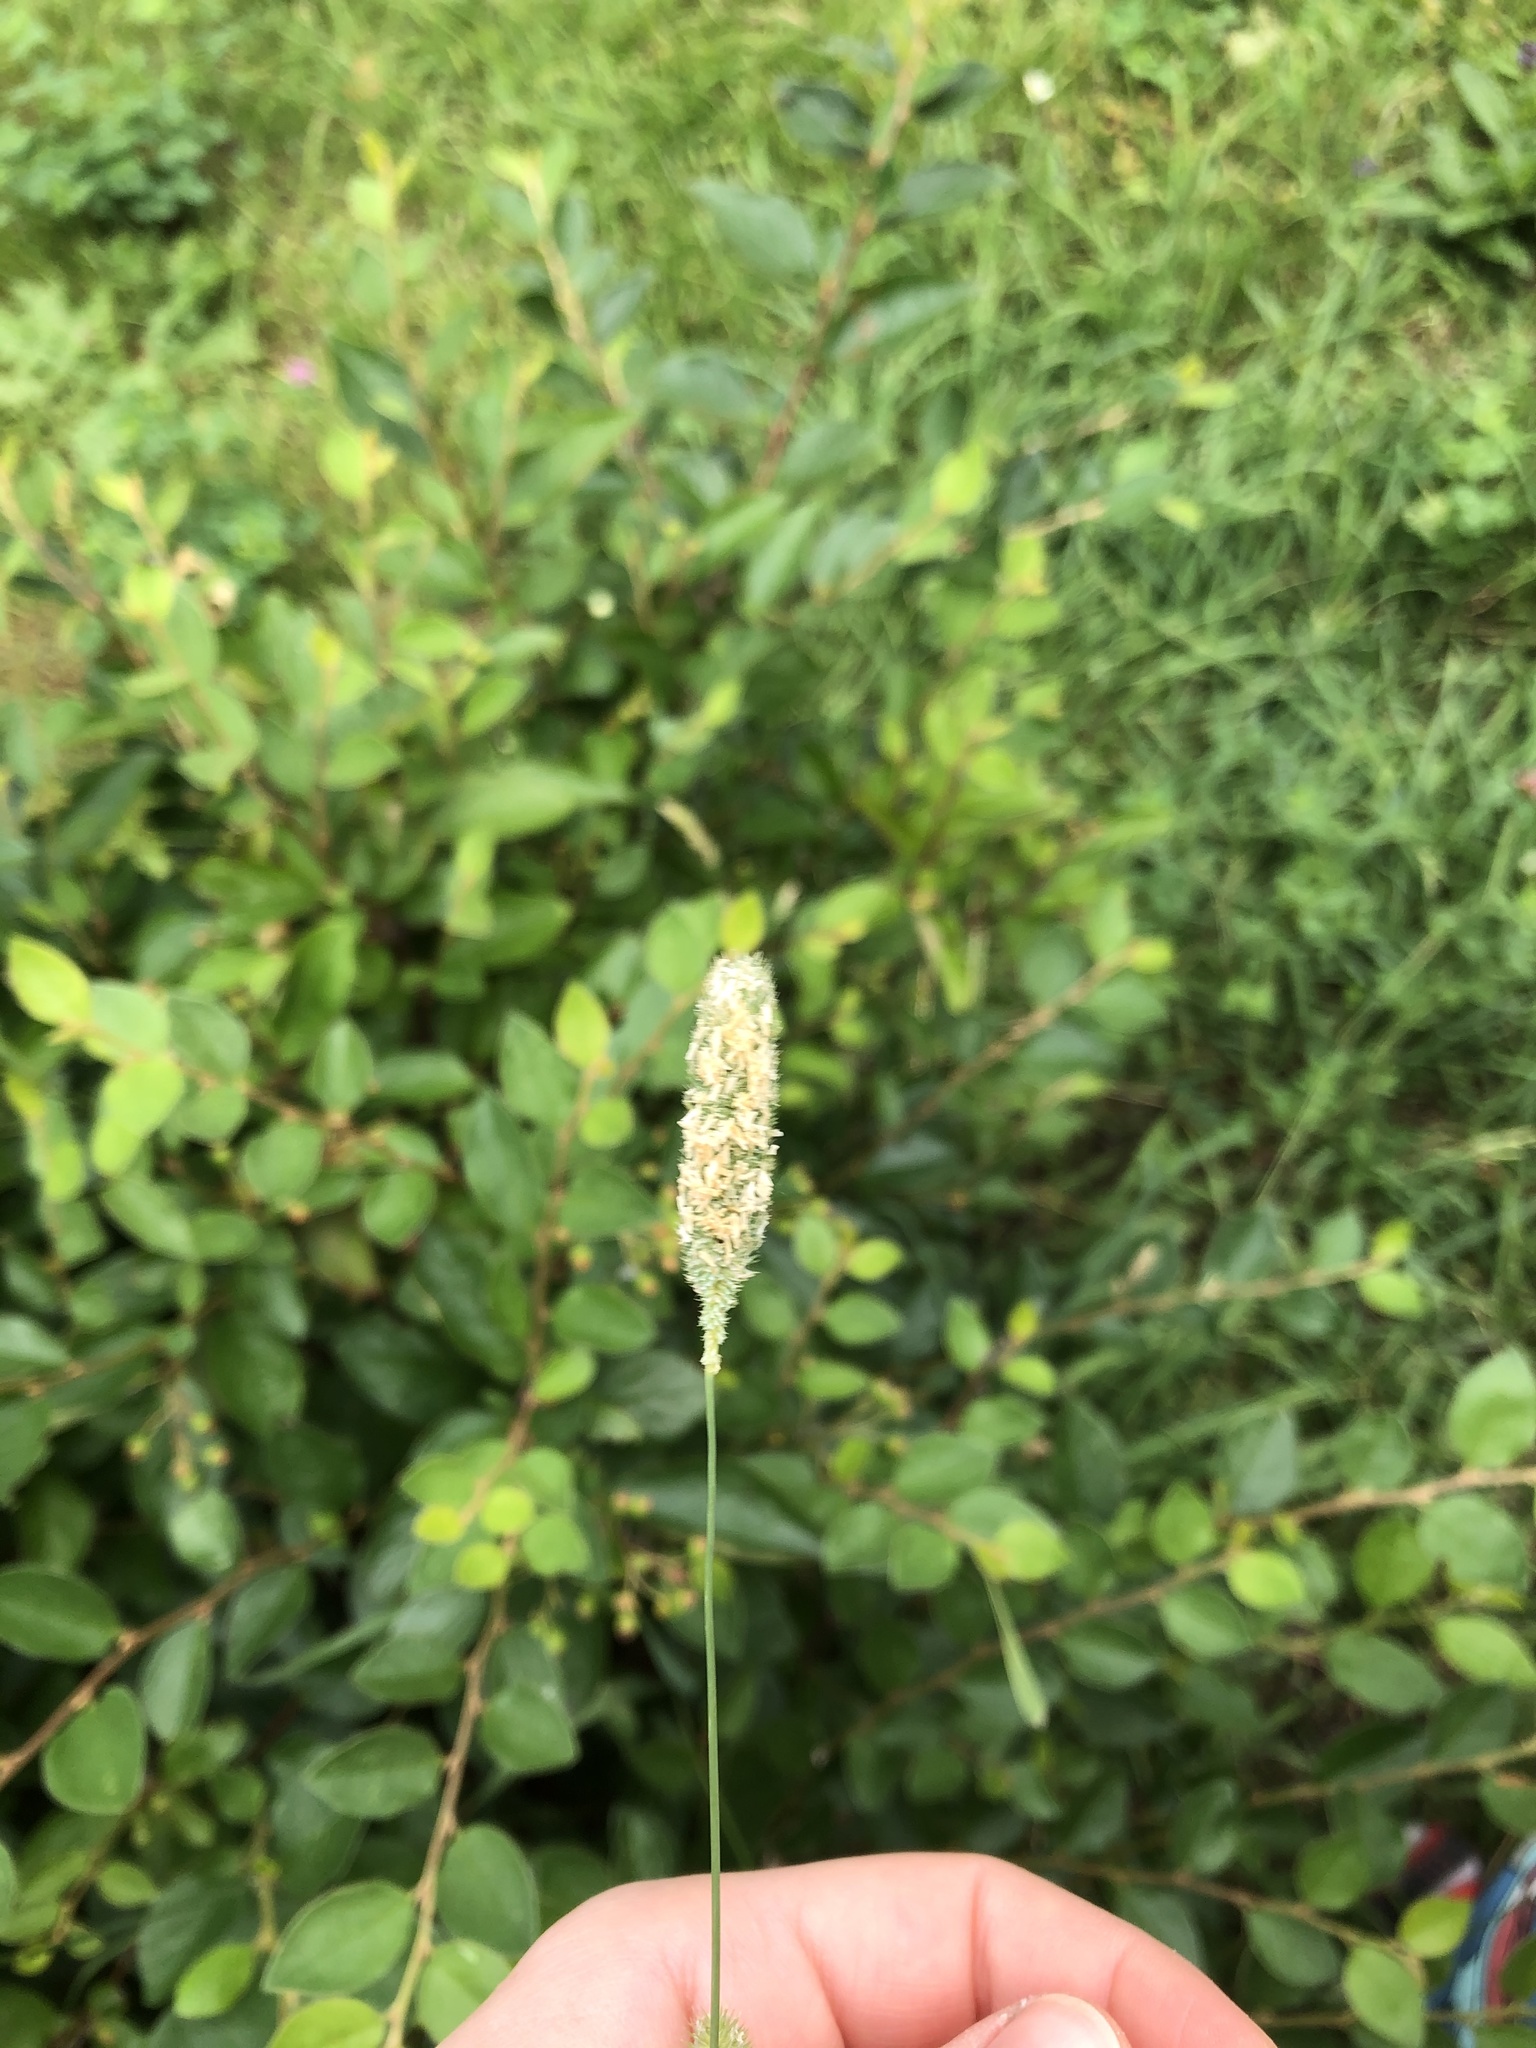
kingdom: Plantae
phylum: Tracheophyta
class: Liliopsida
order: Poales
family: Poaceae
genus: Phleum
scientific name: Phleum pratense
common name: Timothy grass
